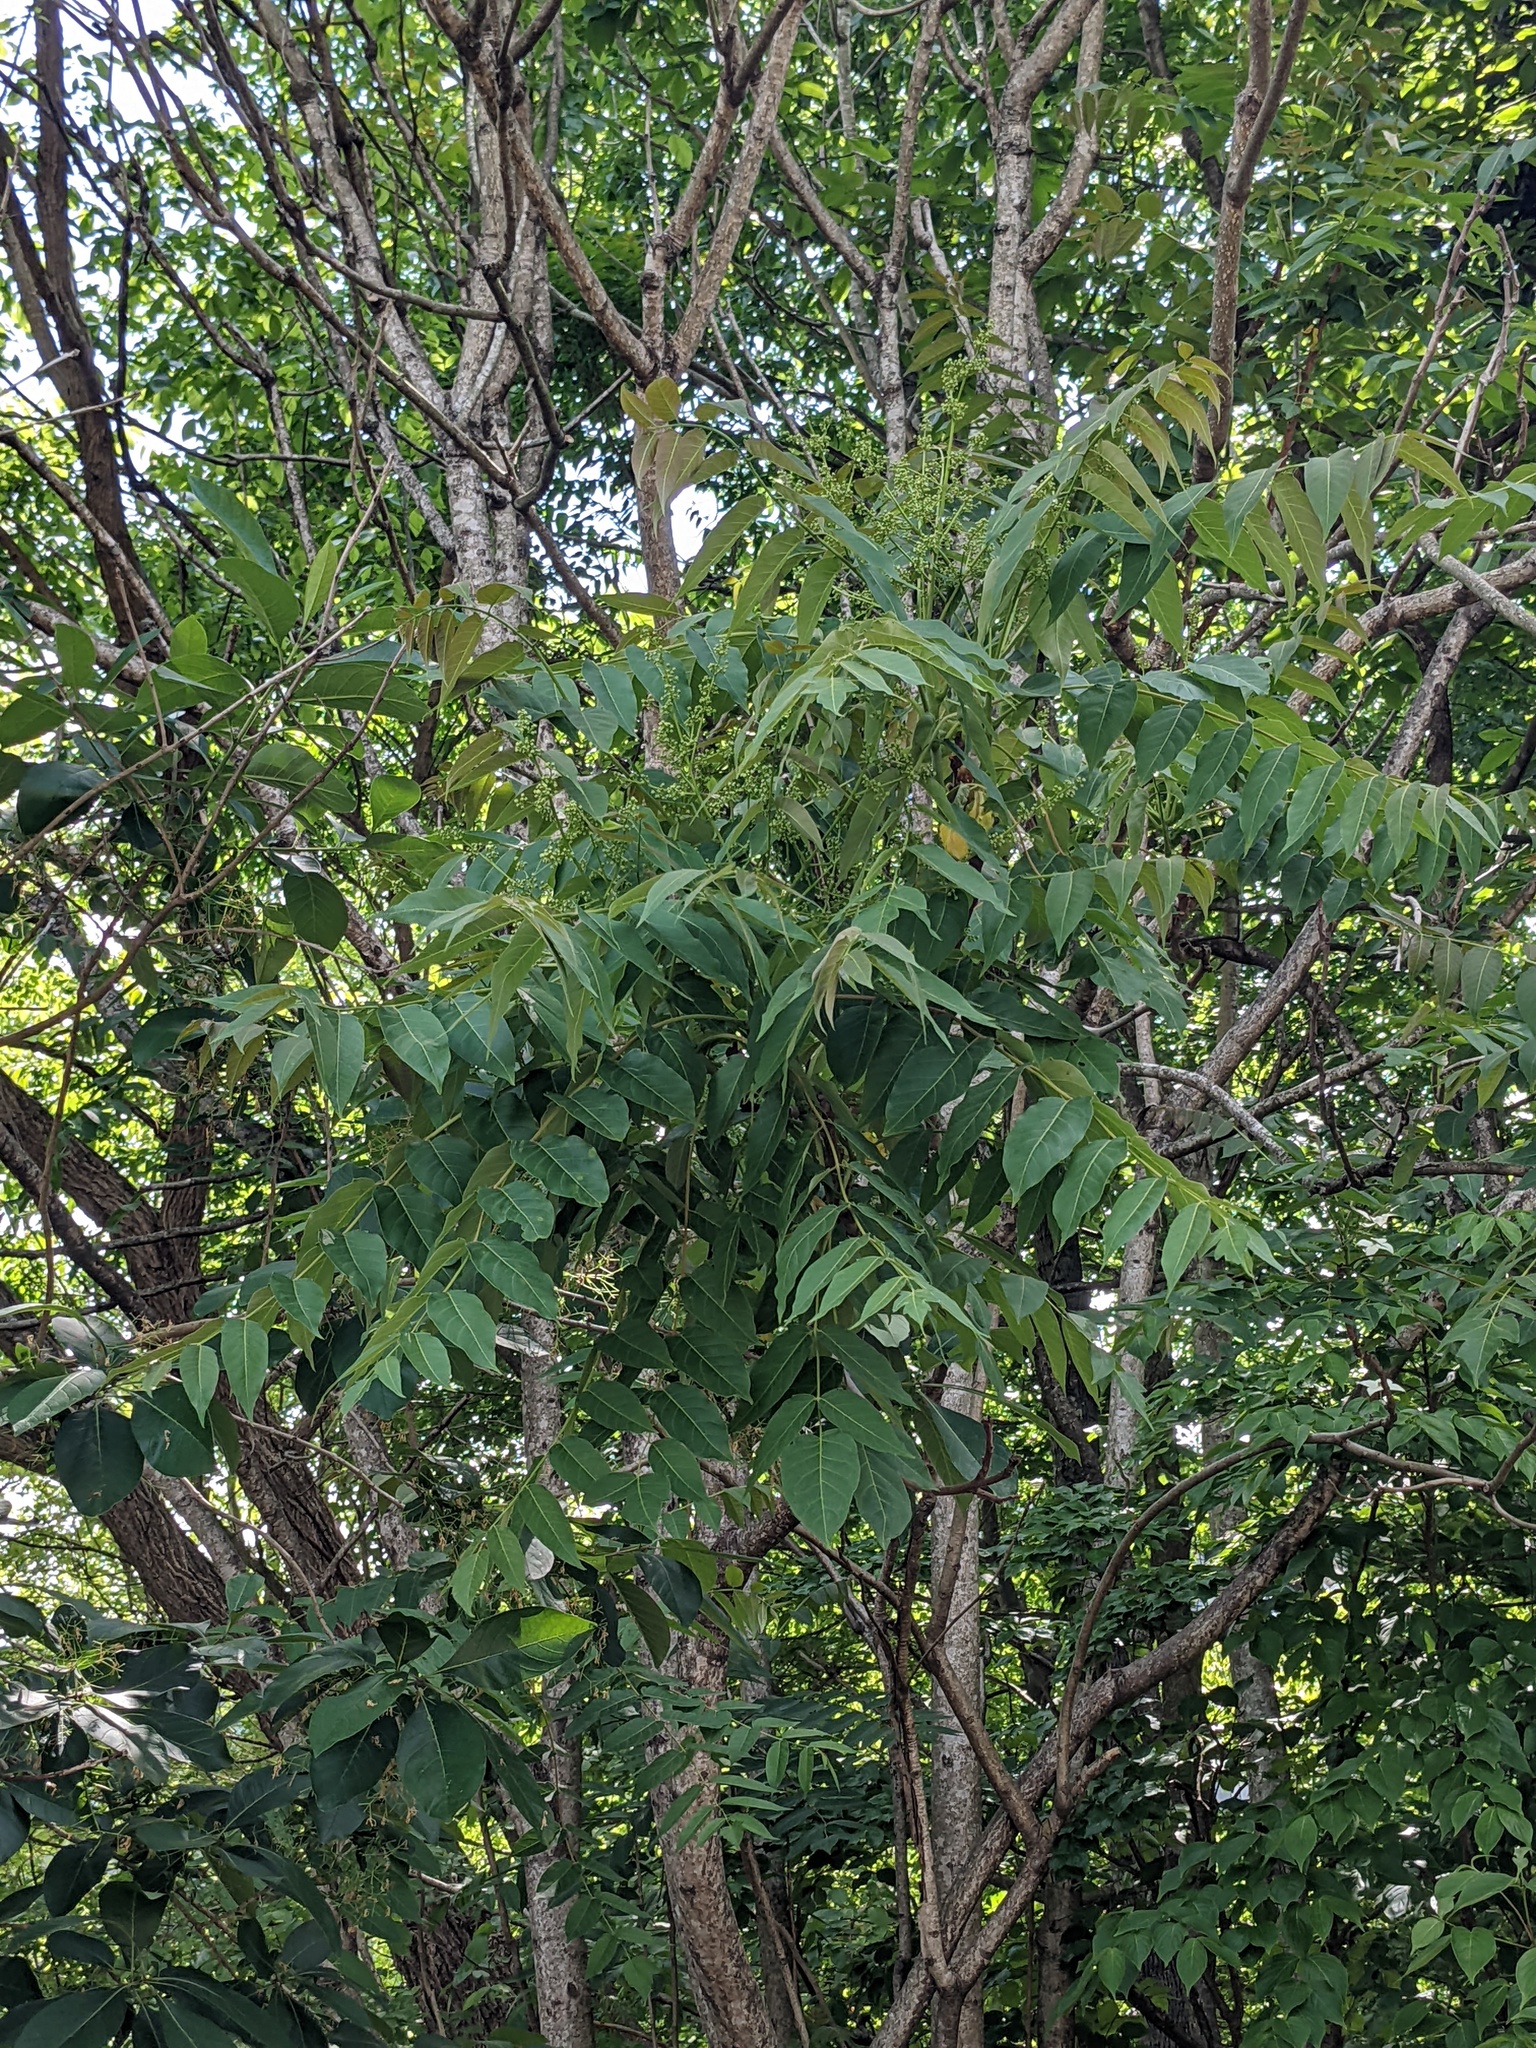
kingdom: Plantae
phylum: Tracheophyta
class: Magnoliopsida
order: Sapindales
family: Simaroubaceae
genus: Ailanthus
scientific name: Ailanthus altissima
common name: Tree-of-heaven
